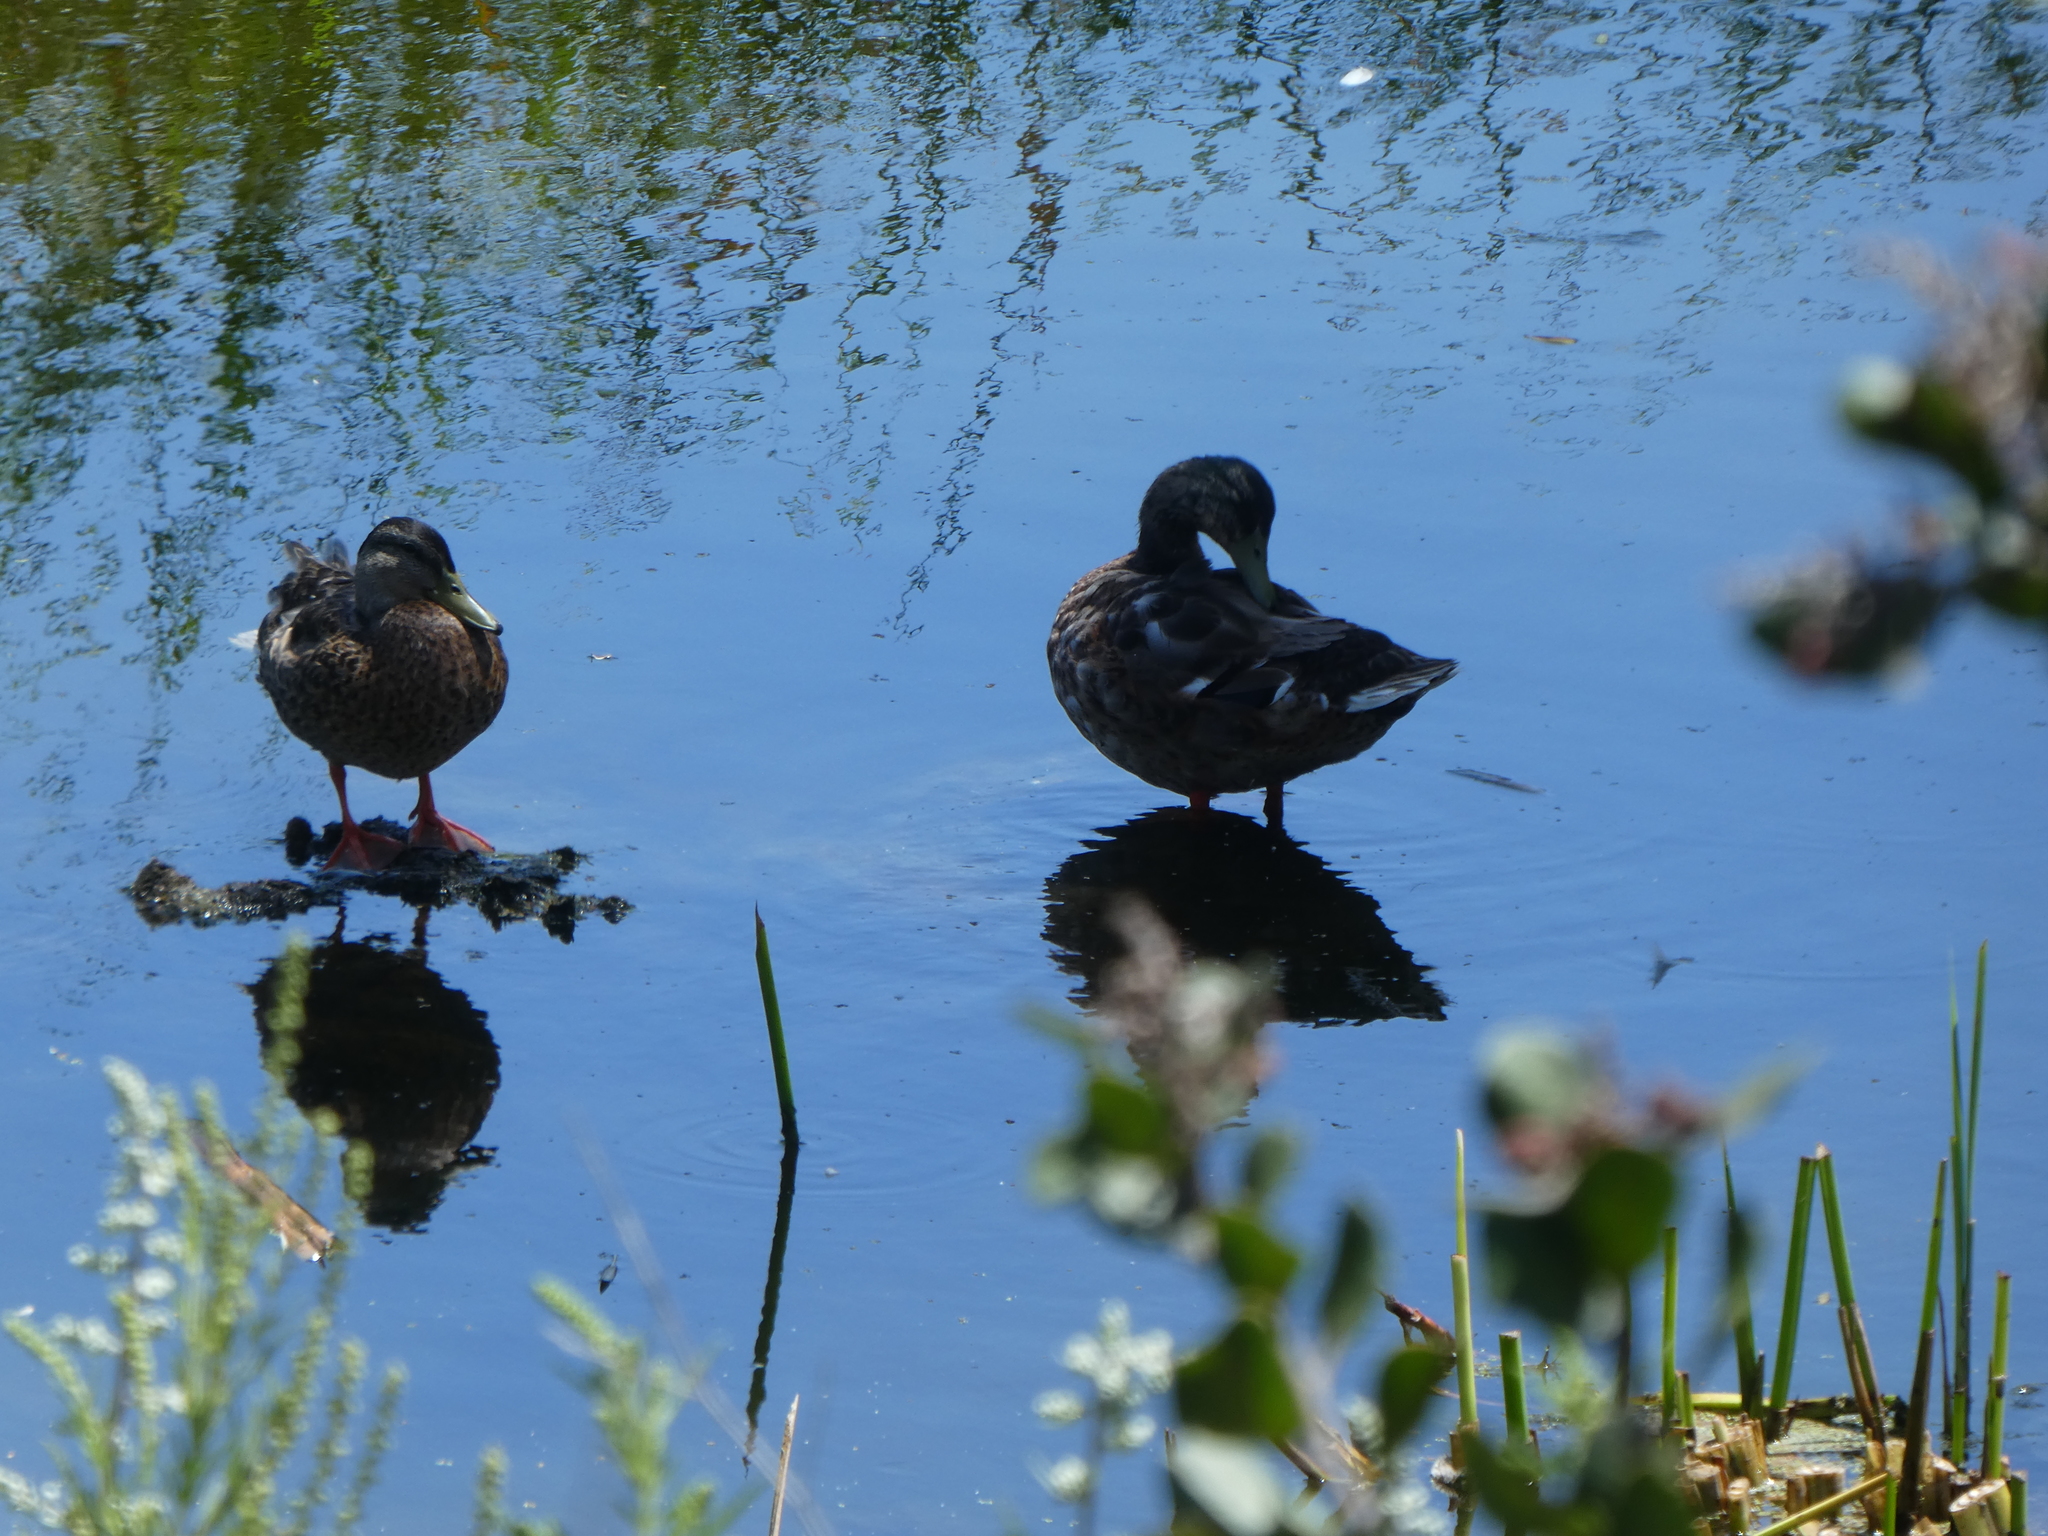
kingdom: Animalia
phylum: Chordata
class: Aves
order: Anseriformes
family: Anatidae
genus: Anas
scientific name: Anas platyrhynchos
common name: Mallard
